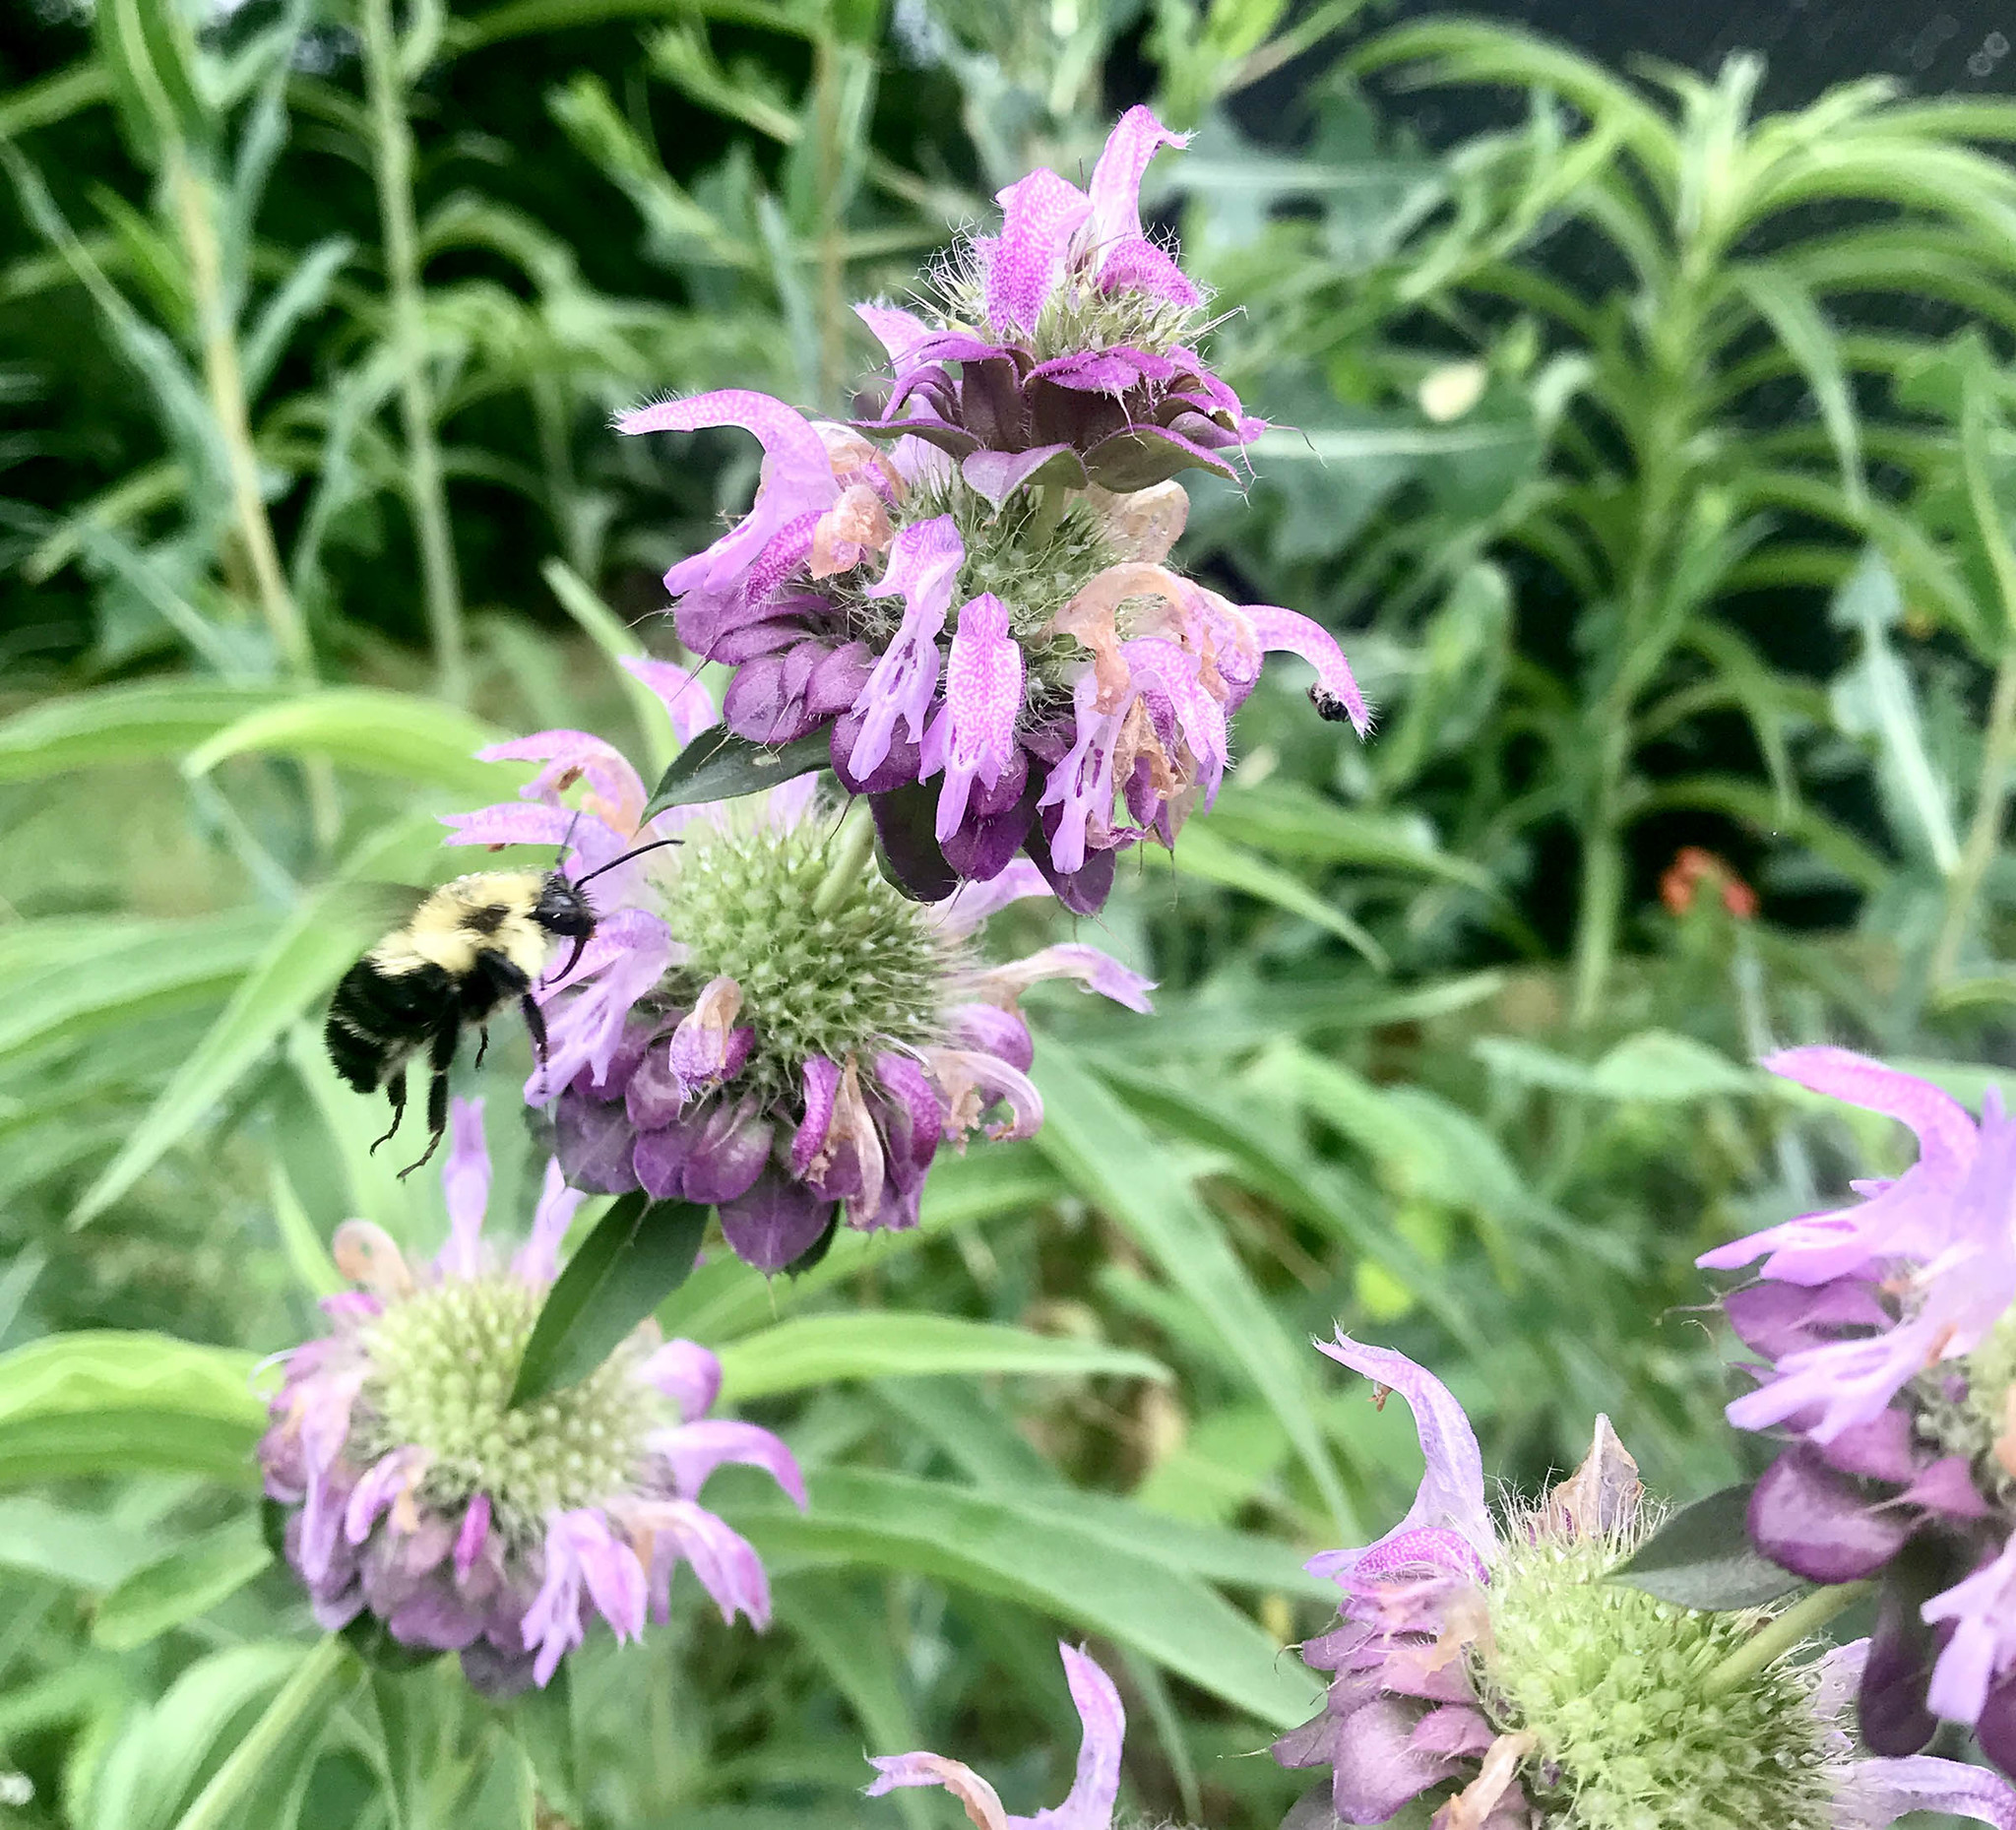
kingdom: Plantae
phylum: Tracheophyta
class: Magnoliopsida
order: Lamiales
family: Lamiaceae
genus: Monarda
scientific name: Monarda citriodora
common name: Lemon beebalm
